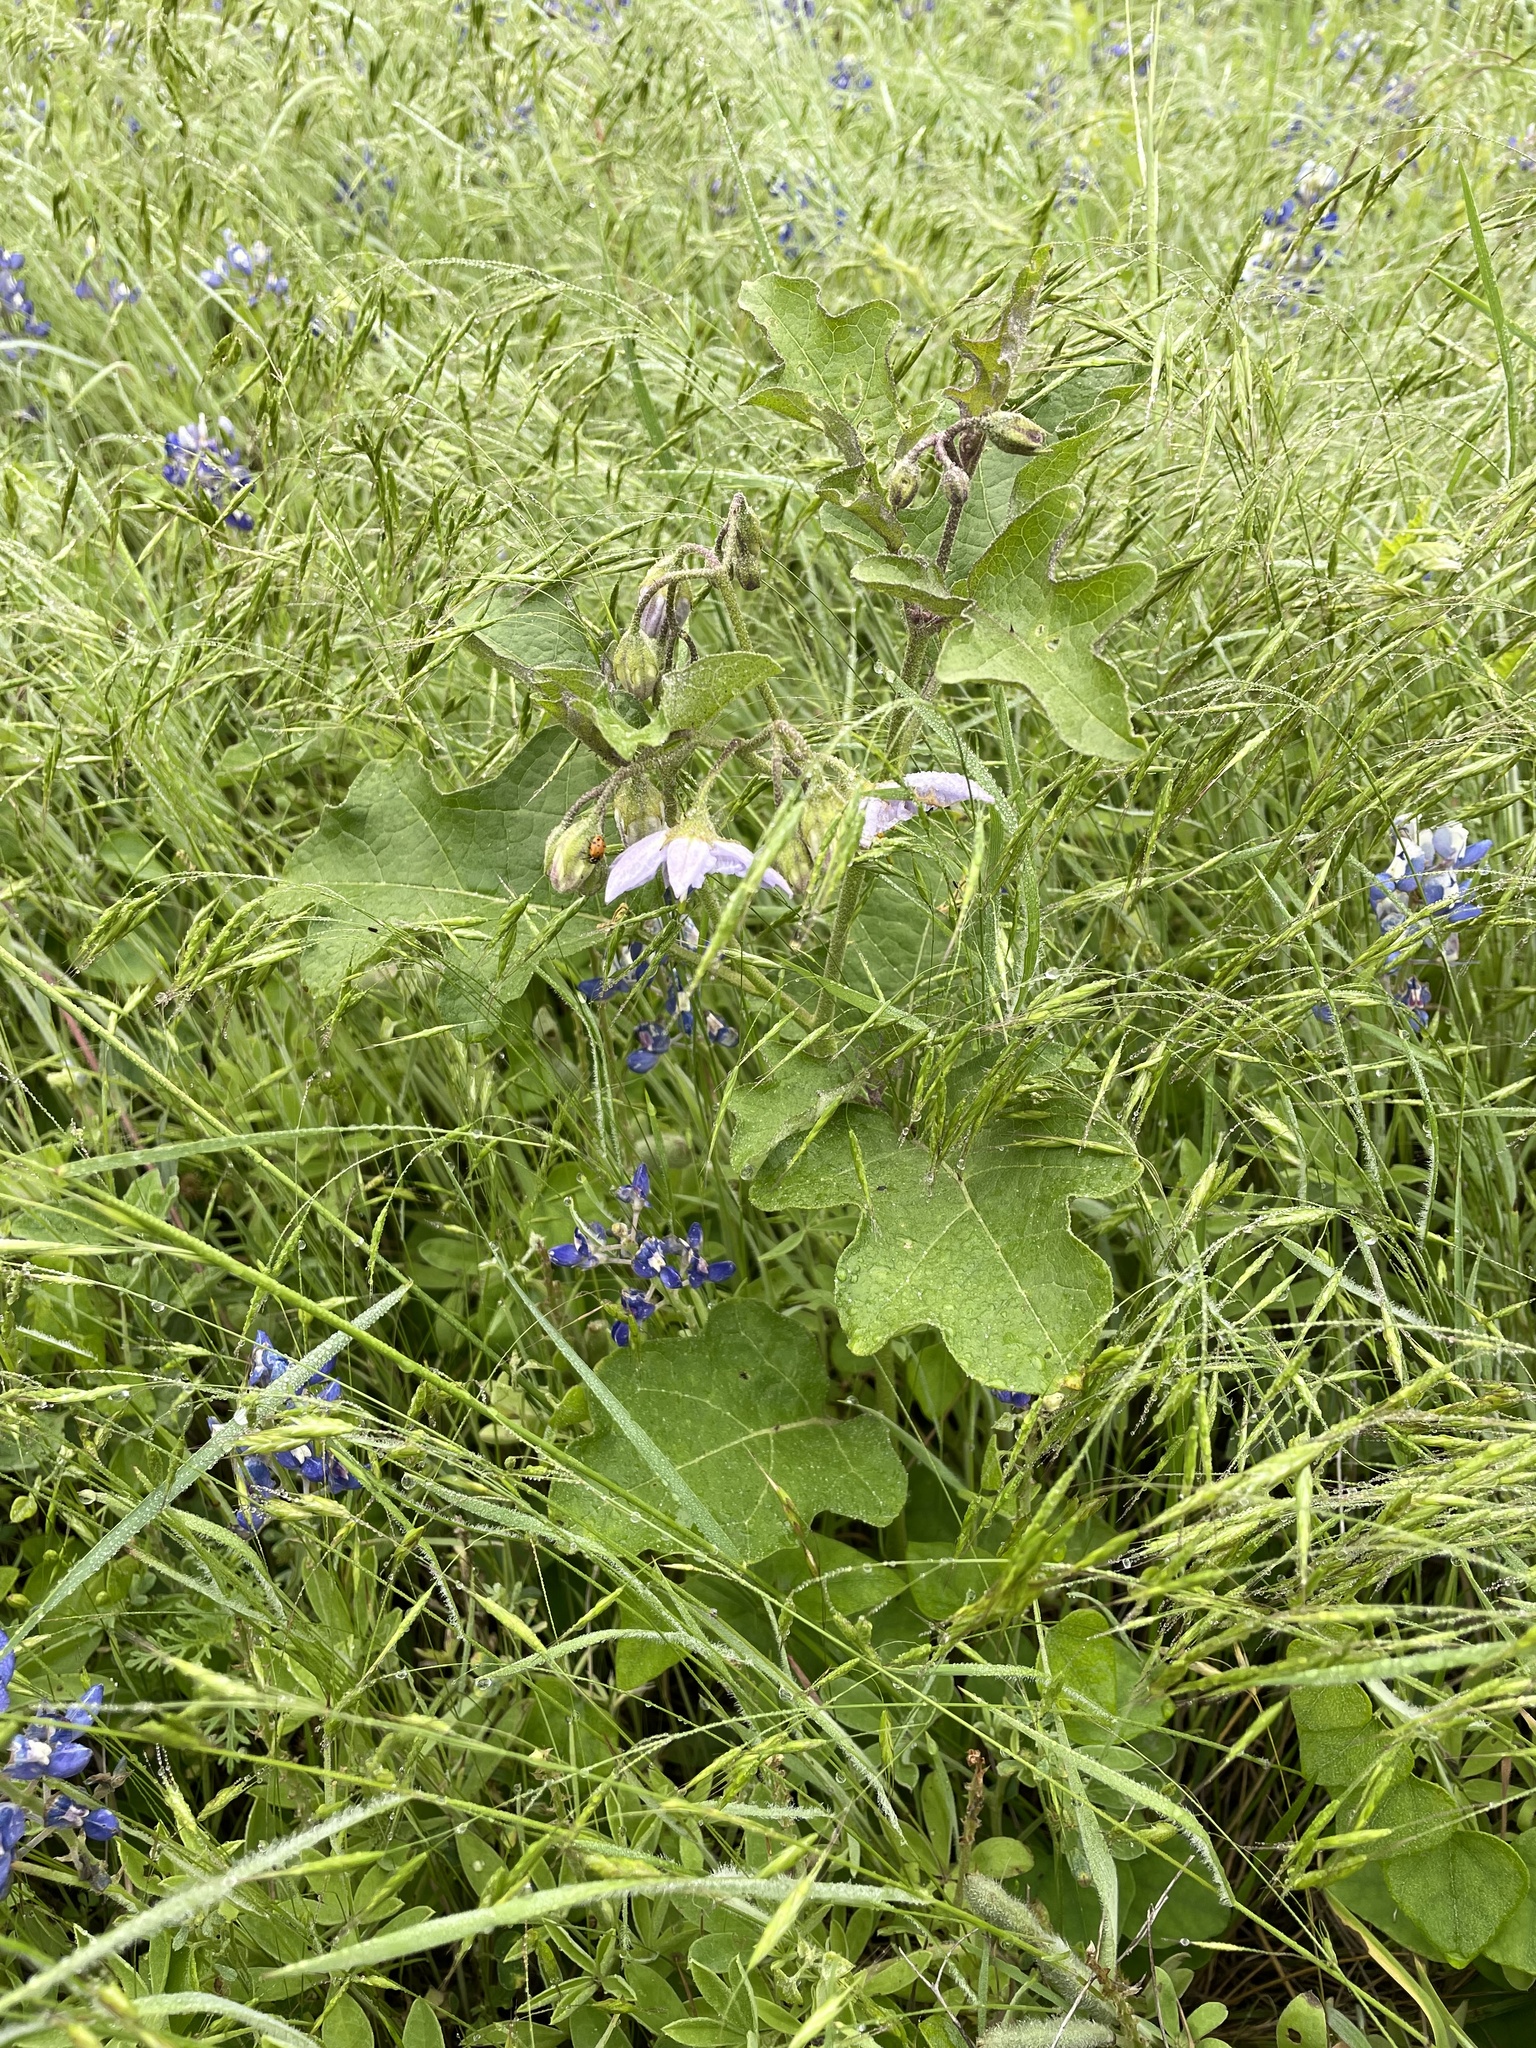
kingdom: Plantae
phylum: Tracheophyta
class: Magnoliopsida
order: Solanales
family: Solanaceae
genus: Solanum
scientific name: Solanum dimidiatum
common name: Carolina horse-nettle
